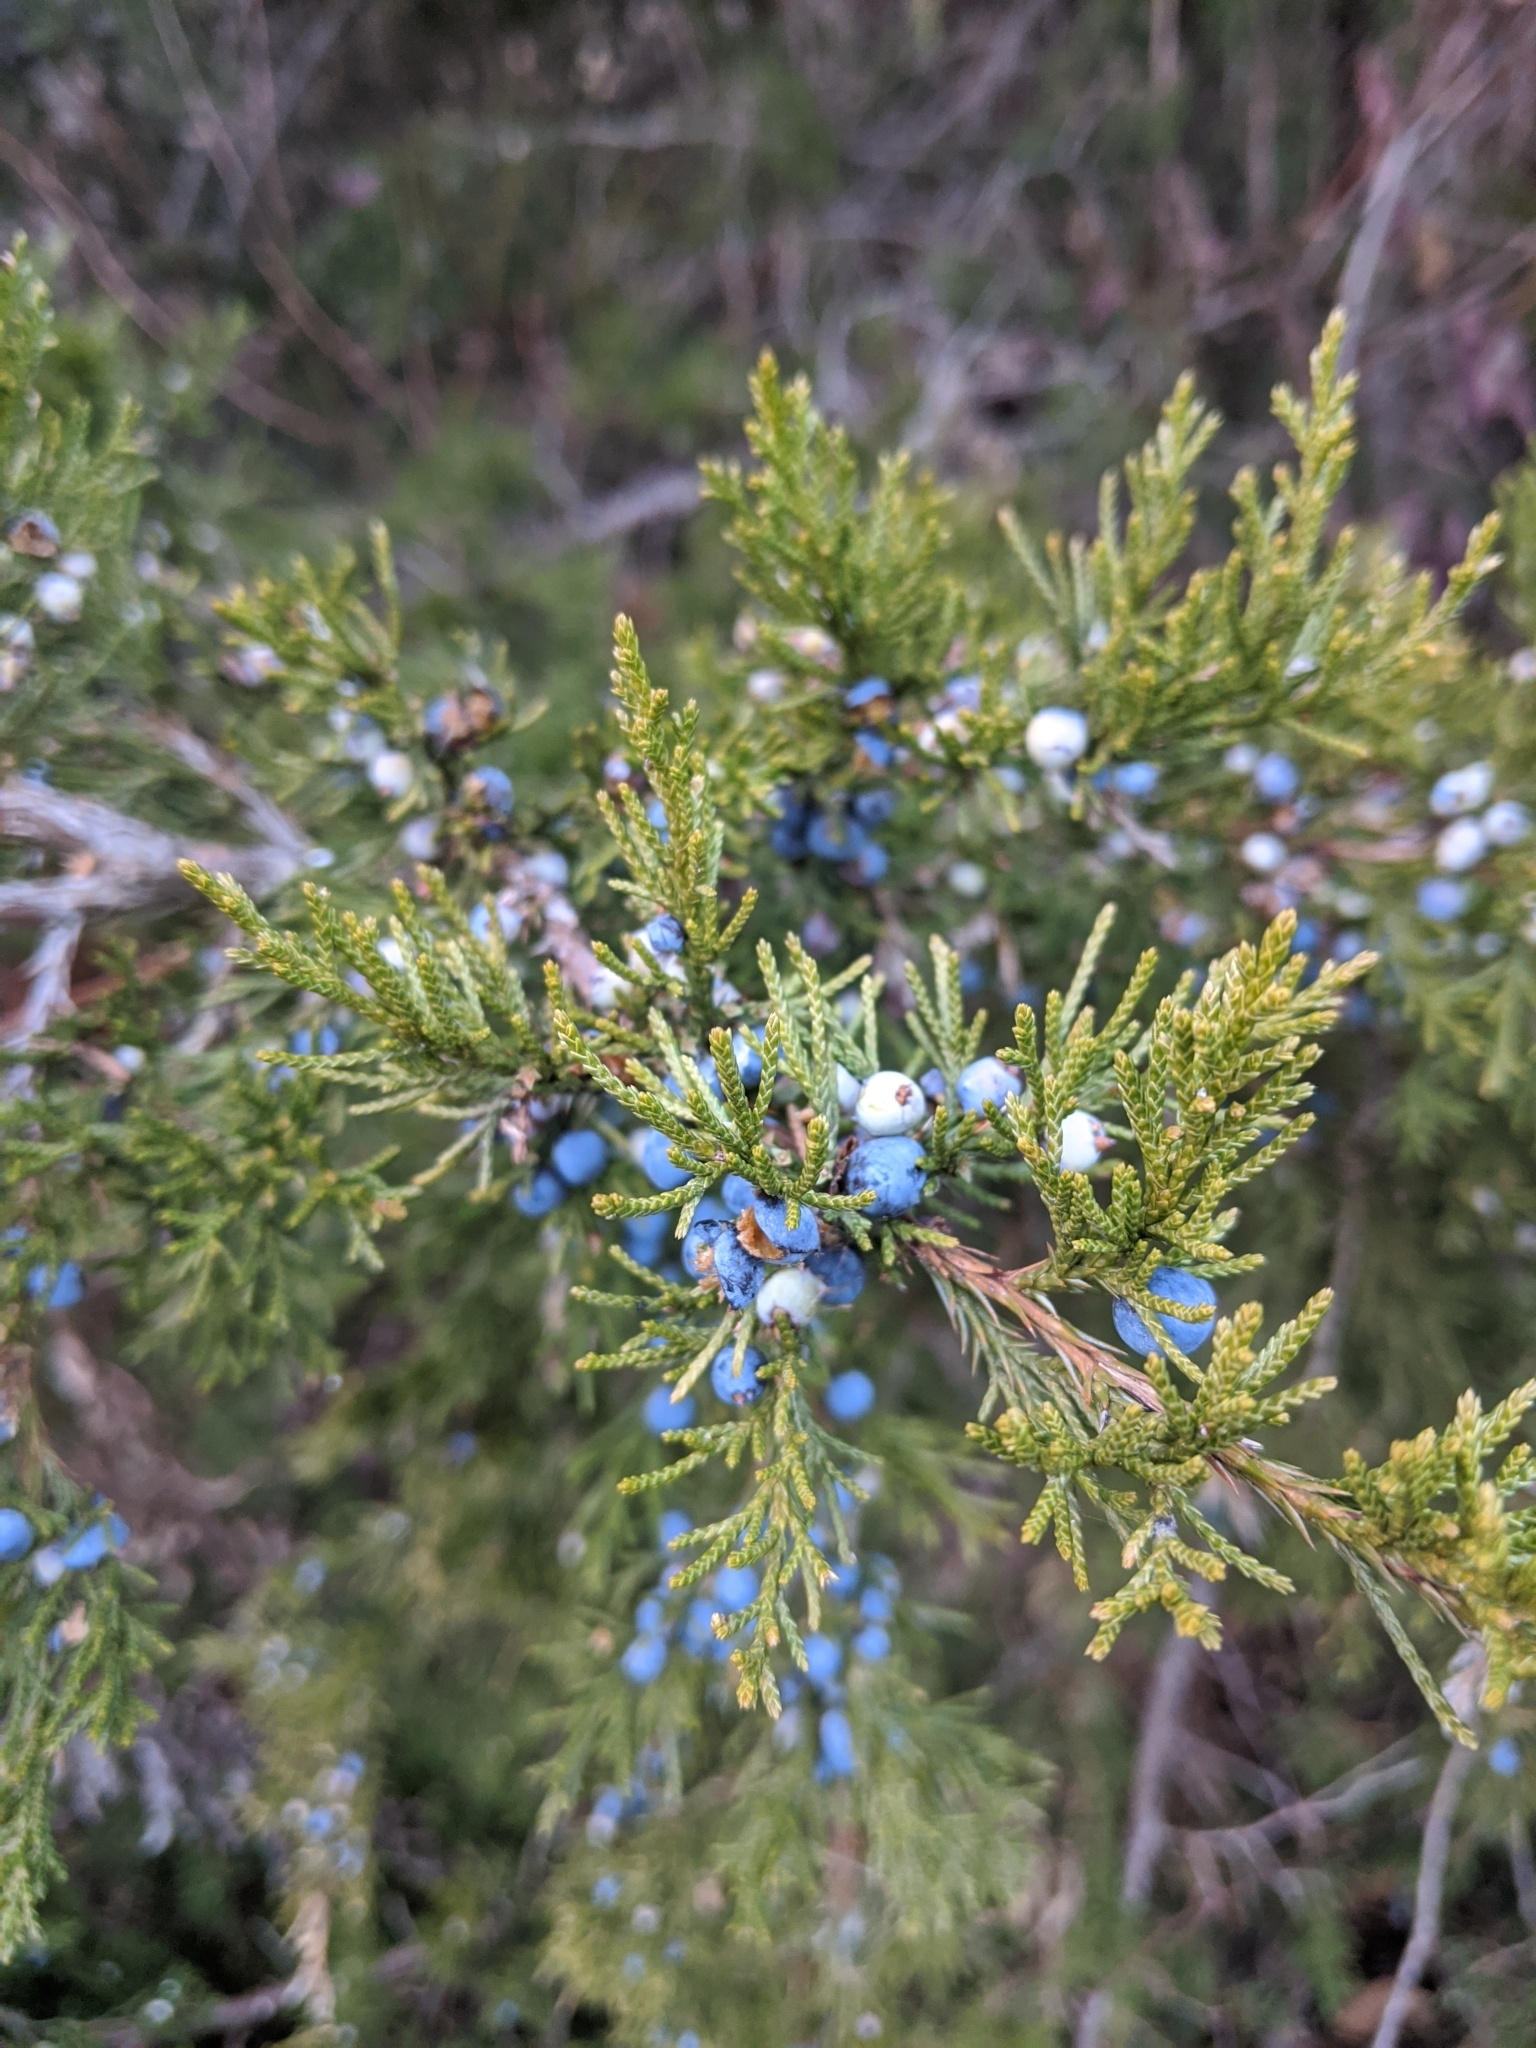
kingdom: Plantae
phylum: Tracheophyta
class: Pinopsida
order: Pinales
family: Cupressaceae
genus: Juniperus
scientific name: Juniperus virginiana
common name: Red juniper
